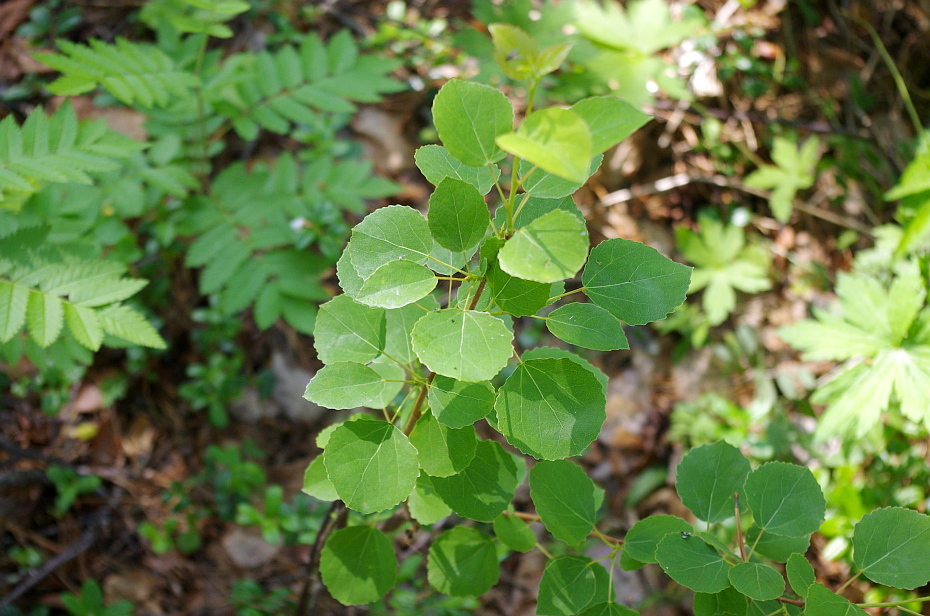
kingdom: Plantae
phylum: Tracheophyta
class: Magnoliopsida
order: Malpighiales
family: Salicaceae
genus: Populus
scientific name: Populus tremula
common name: European aspen
